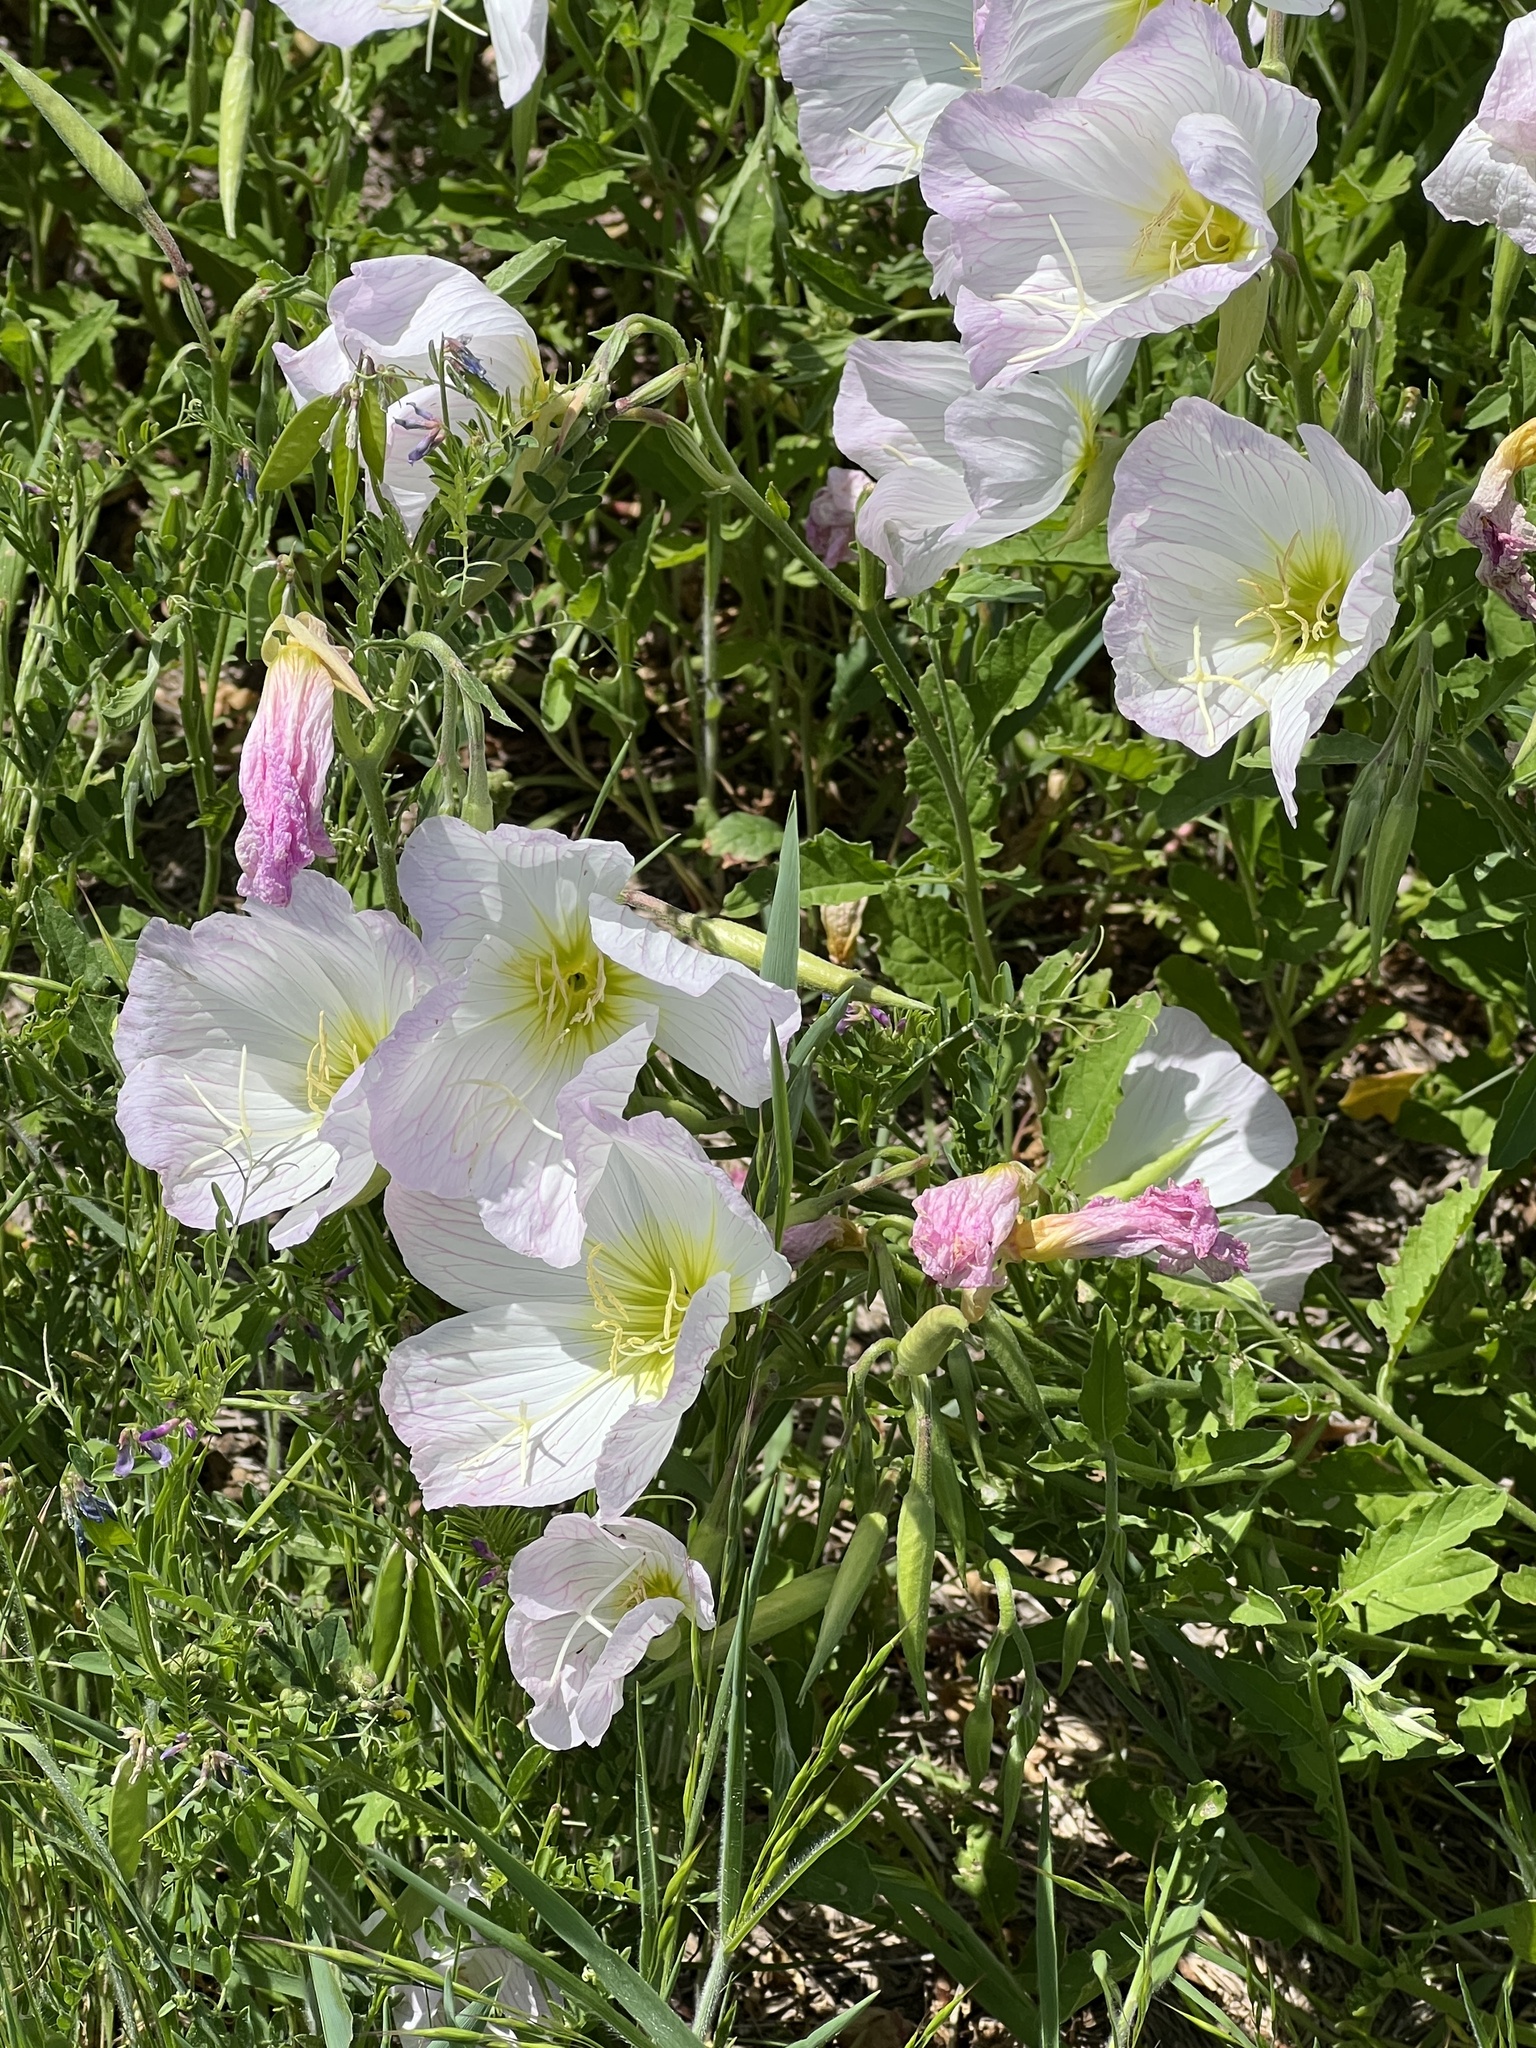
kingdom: Plantae
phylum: Tracheophyta
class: Magnoliopsida
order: Myrtales
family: Onagraceae
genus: Oenothera
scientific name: Oenothera speciosa
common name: White evening-primrose
